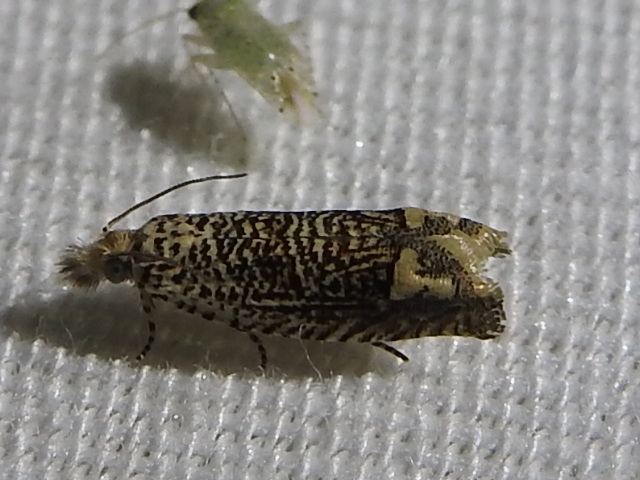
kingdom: Animalia
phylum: Arthropoda
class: Insecta
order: Lepidoptera
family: Tortricidae
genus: Eucosma
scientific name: Eucosma argutipunctana
